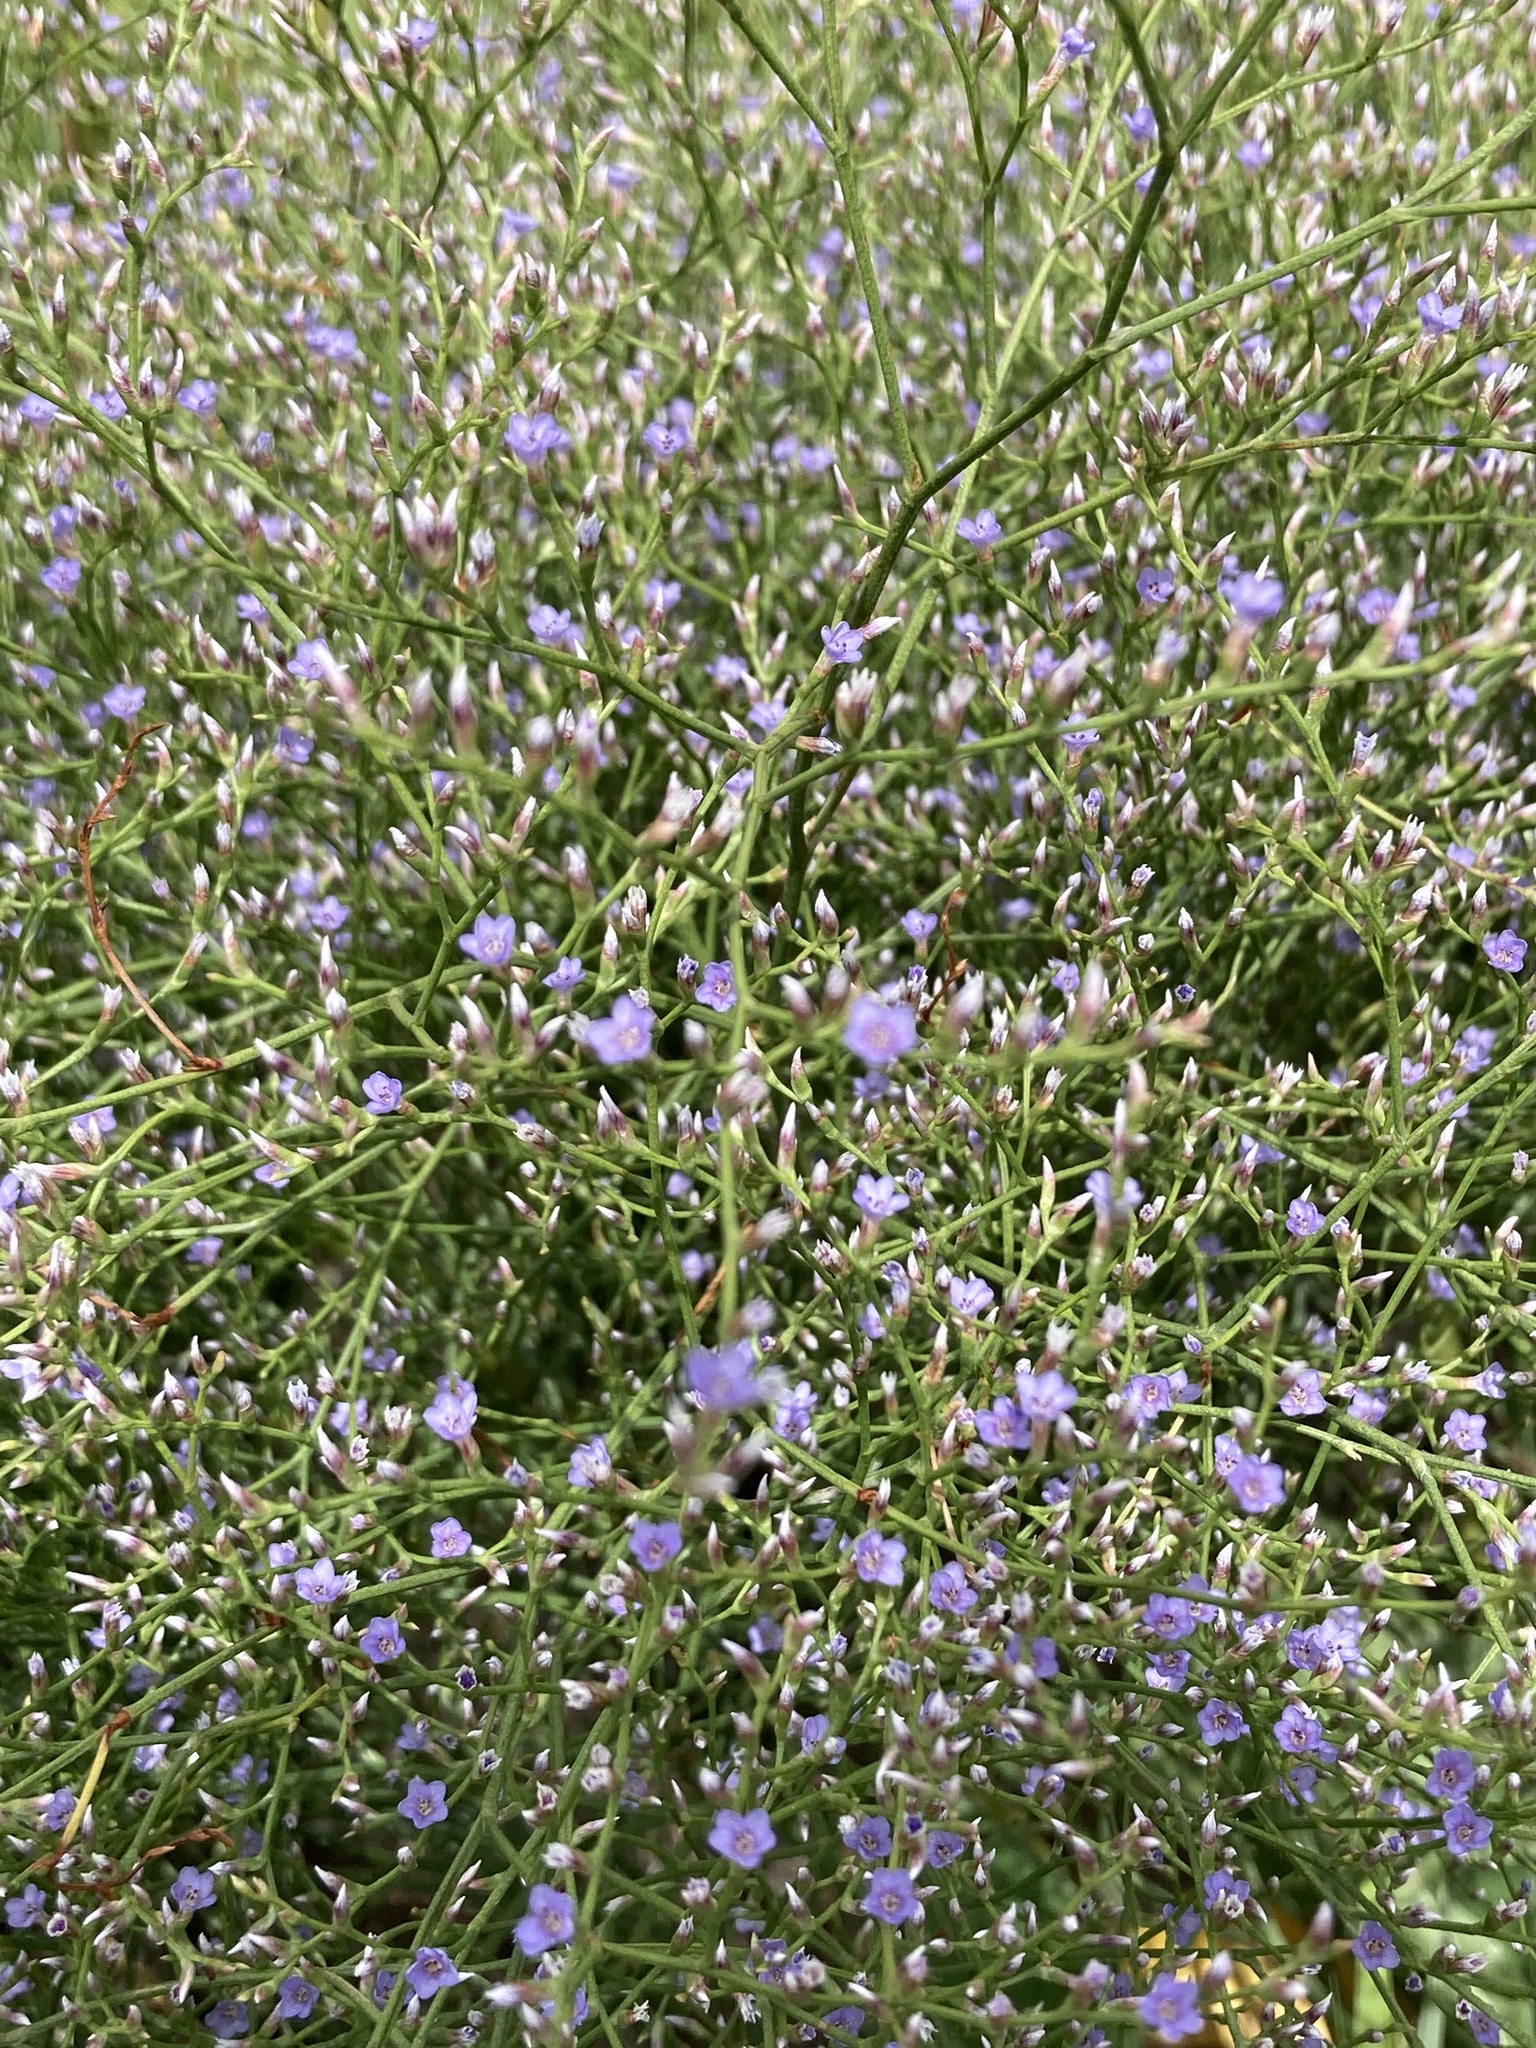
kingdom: Plantae
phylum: Tracheophyta
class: Magnoliopsida
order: Caryophyllales
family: Plumbaginaceae
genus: Limonium
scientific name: Limonium carolinianum
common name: Carolina sea lavender
